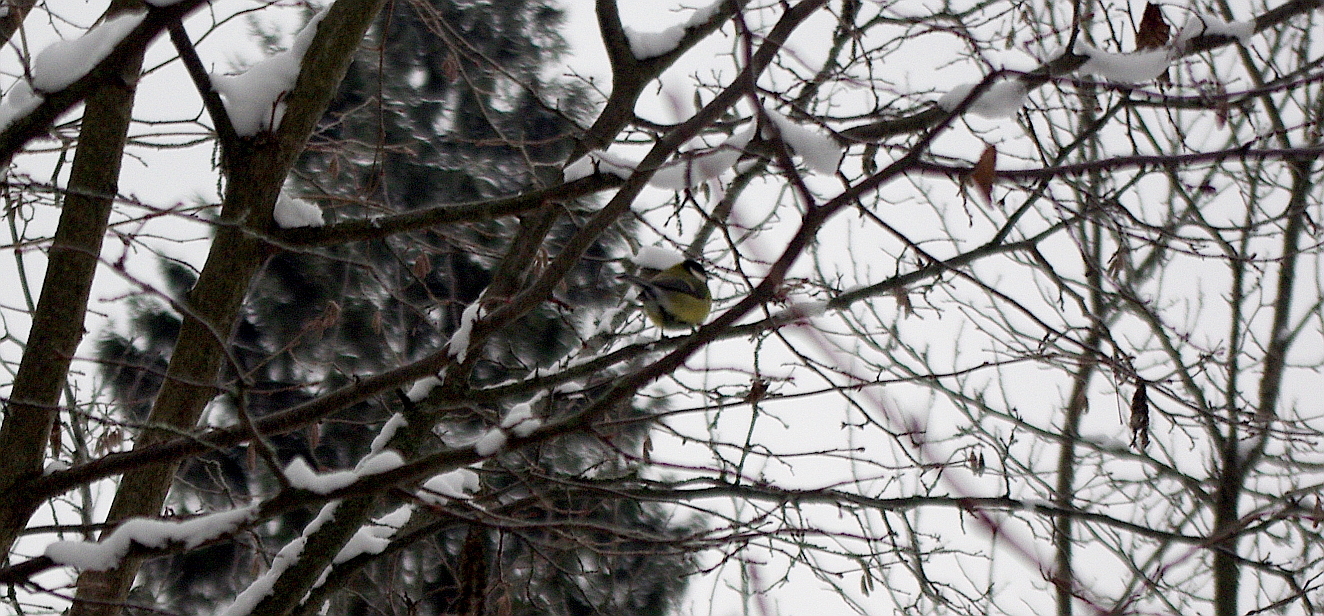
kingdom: Animalia
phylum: Chordata
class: Aves
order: Passeriformes
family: Paridae
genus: Parus
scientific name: Parus major
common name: Great tit
